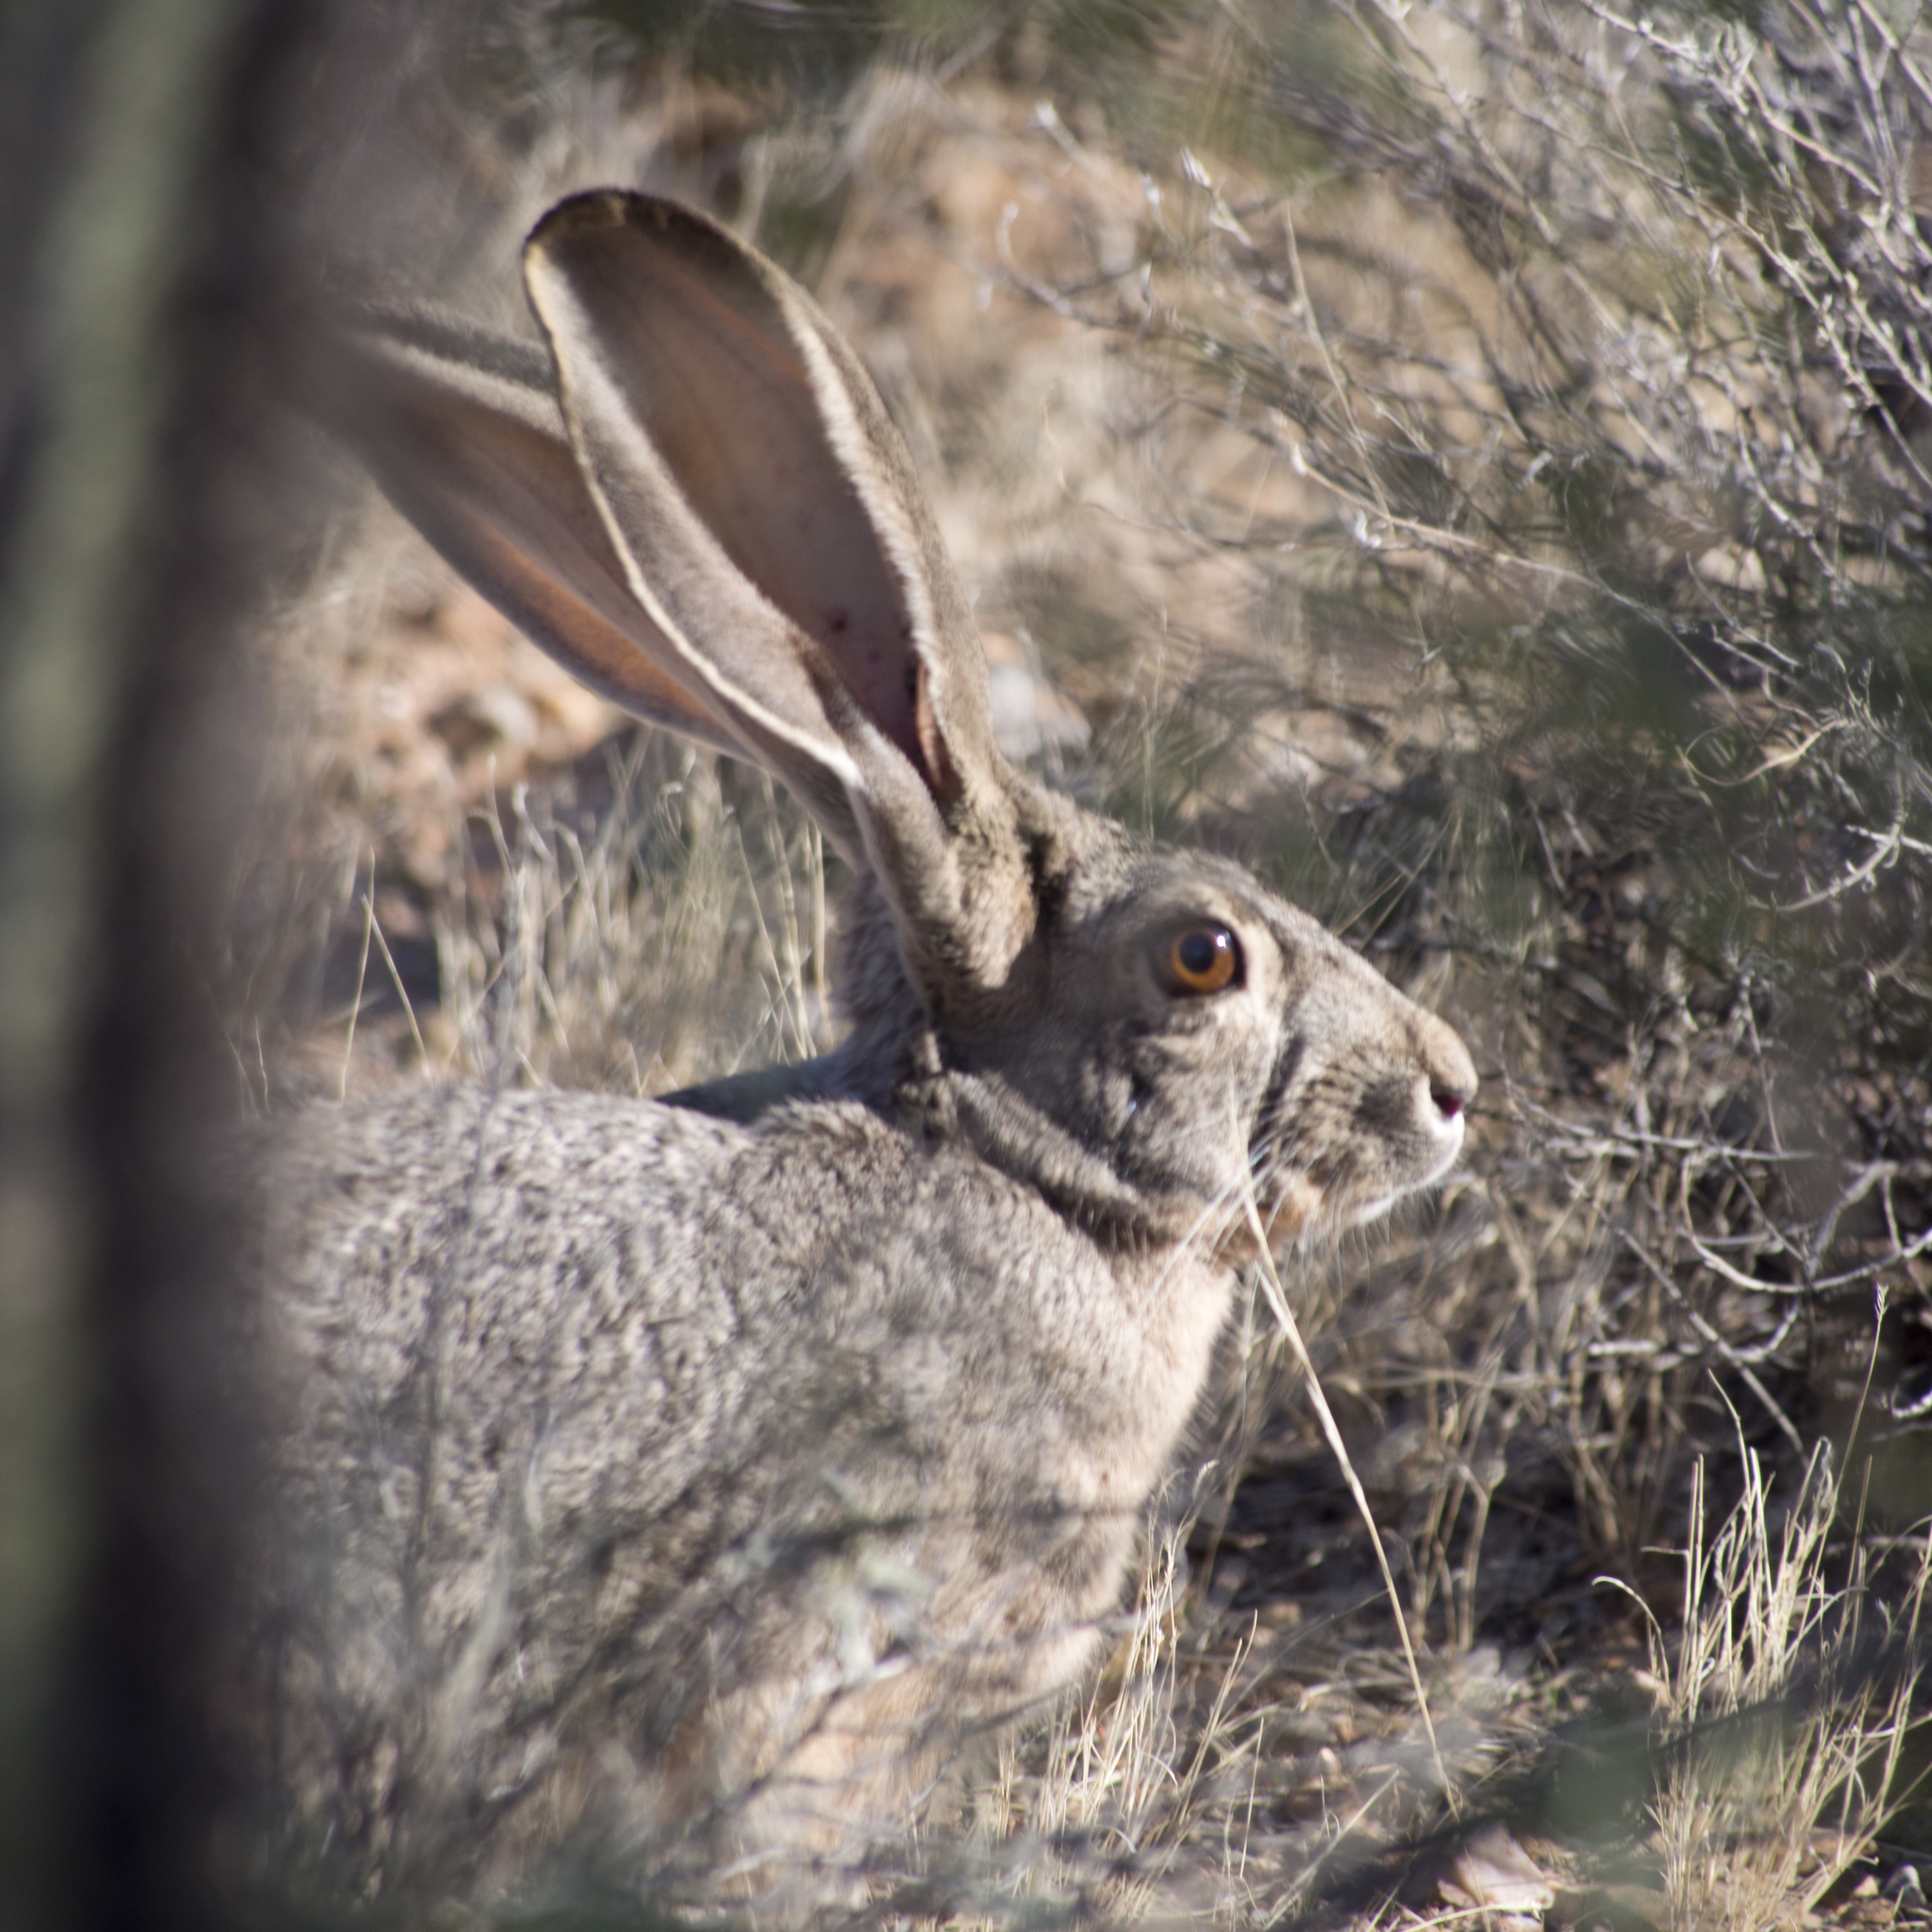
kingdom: Animalia
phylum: Chordata
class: Mammalia
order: Lagomorpha
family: Leporidae
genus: Lepus
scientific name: Lepus californicus
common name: Black-tailed jackrabbit
